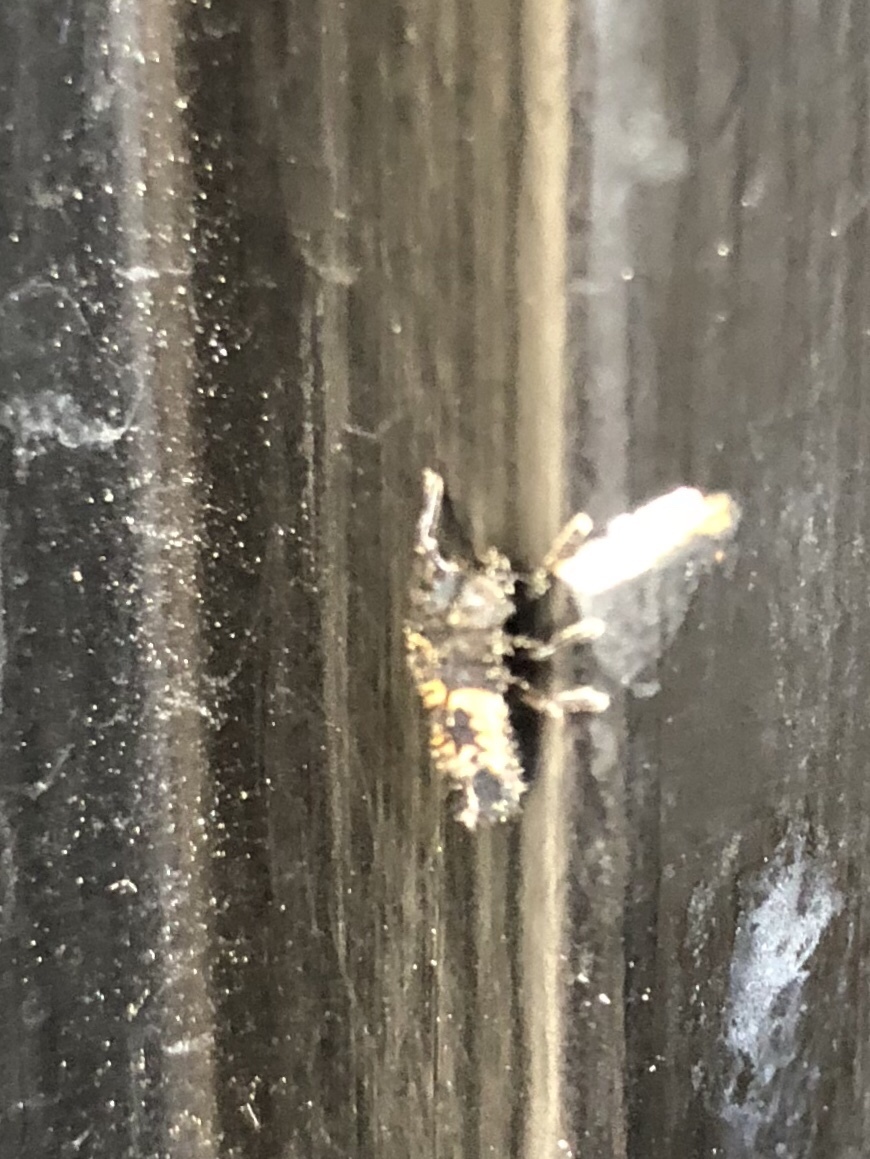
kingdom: Animalia
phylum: Arthropoda
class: Insecta
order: Coleoptera
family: Coccinellidae
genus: Harmonia
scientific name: Harmonia axyridis
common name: Harlequin ladybird
